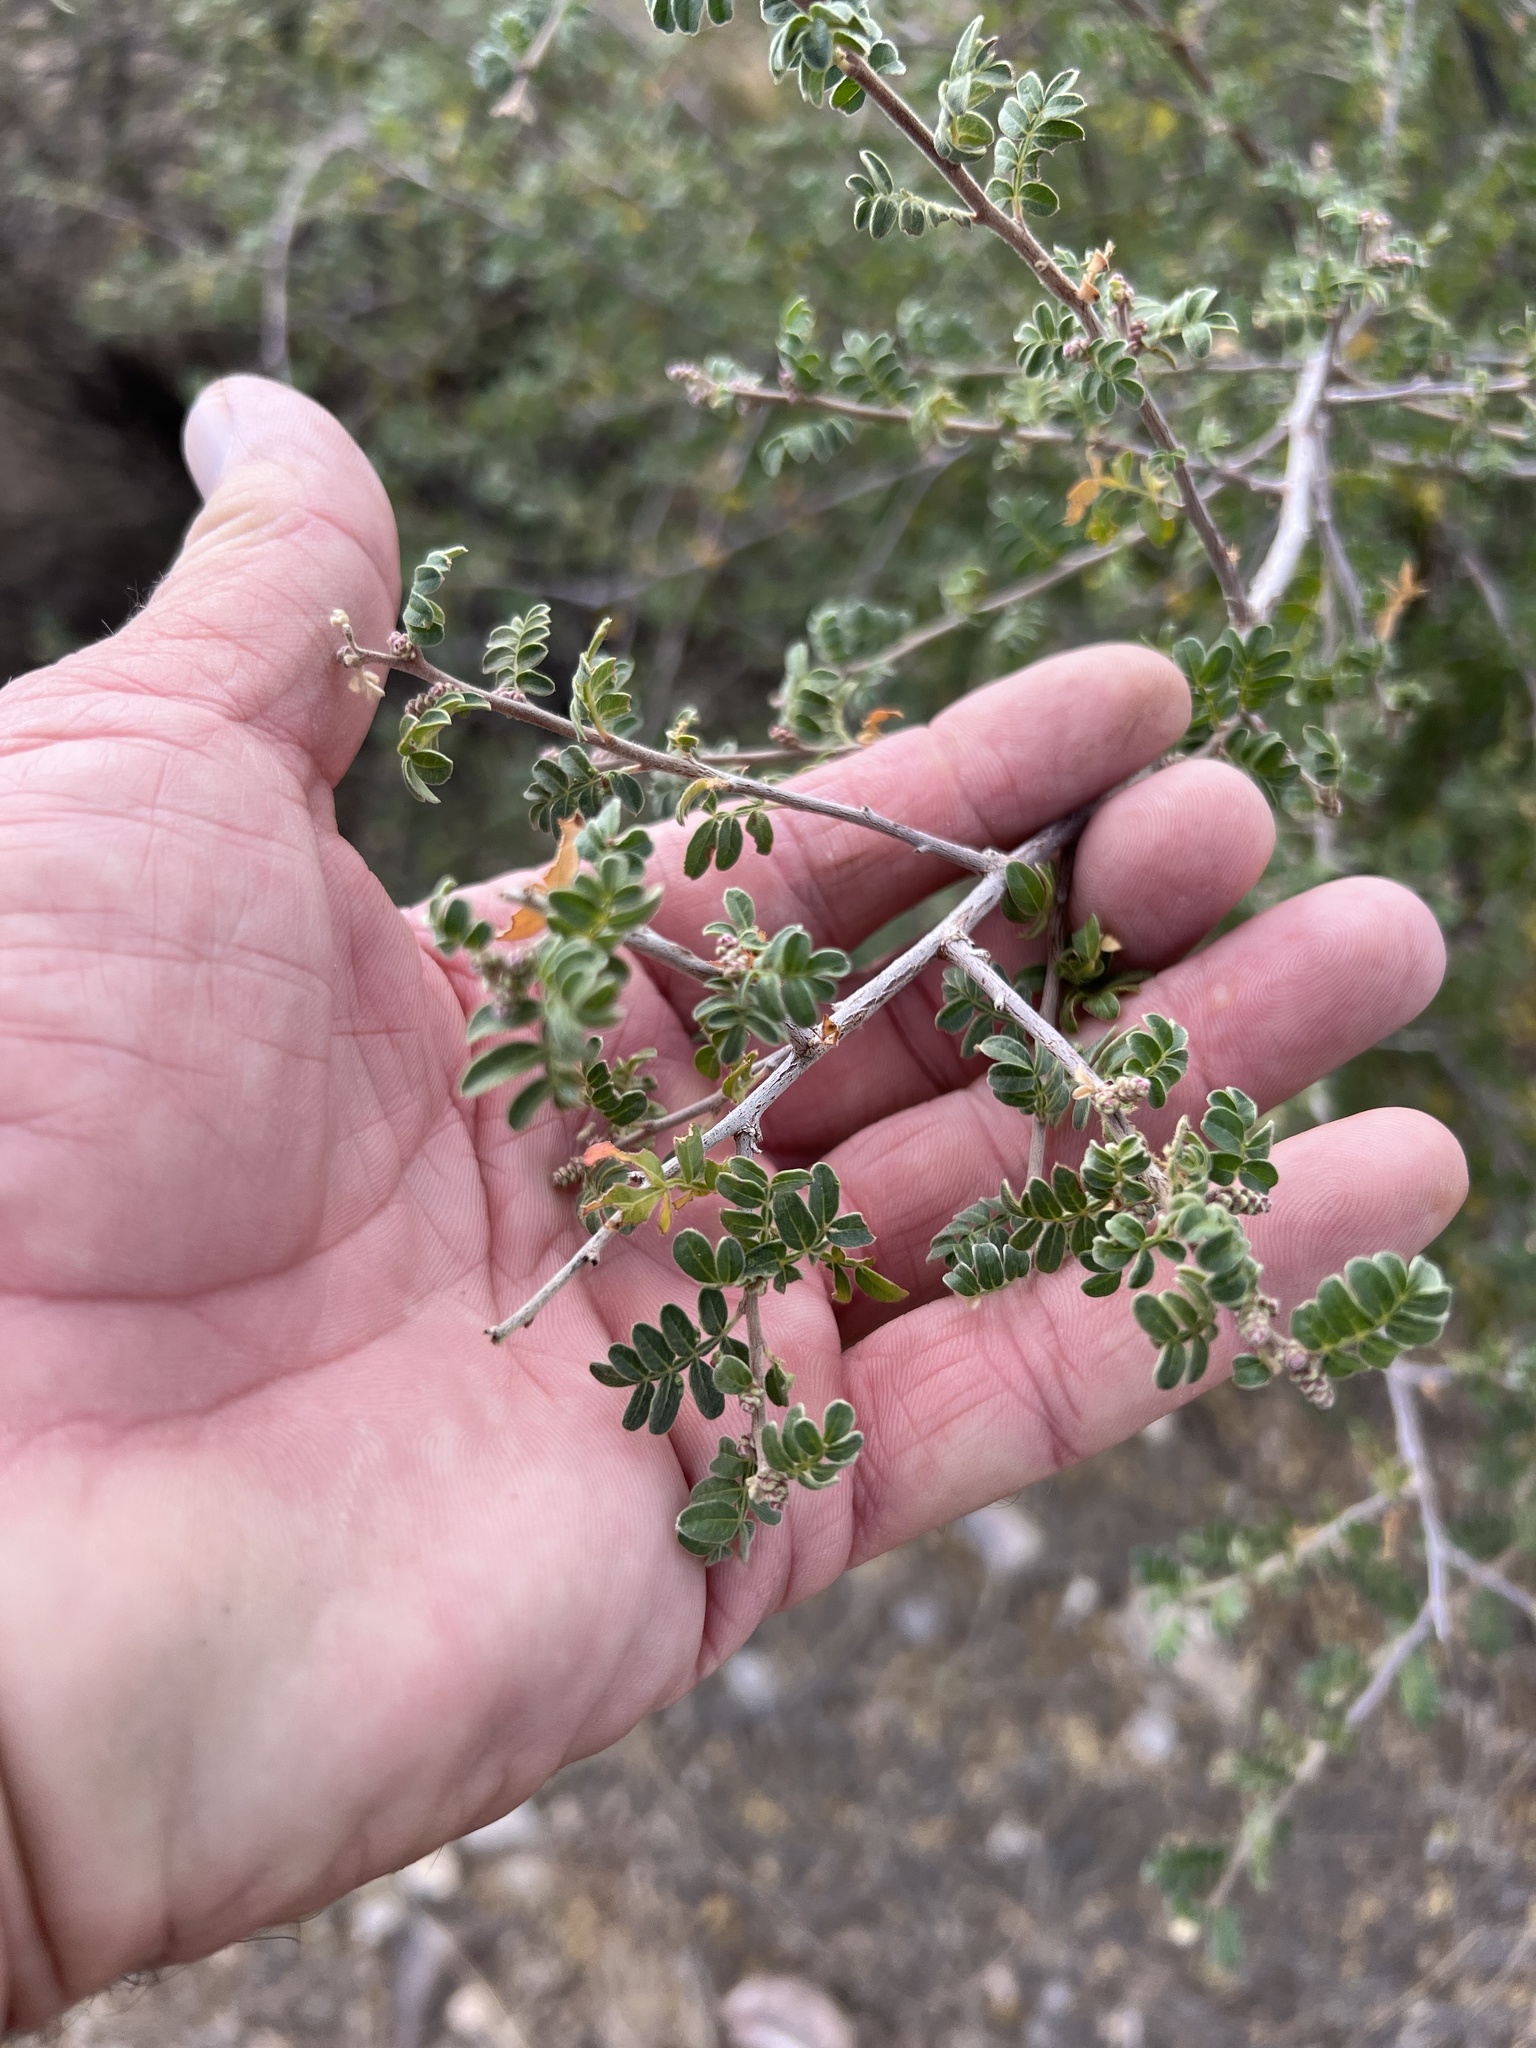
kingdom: Plantae
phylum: Tracheophyta
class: Magnoliopsida
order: Sapindales
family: Anacardiaceae
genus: Rhus
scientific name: Rhus microphylla
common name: Desert sumac
